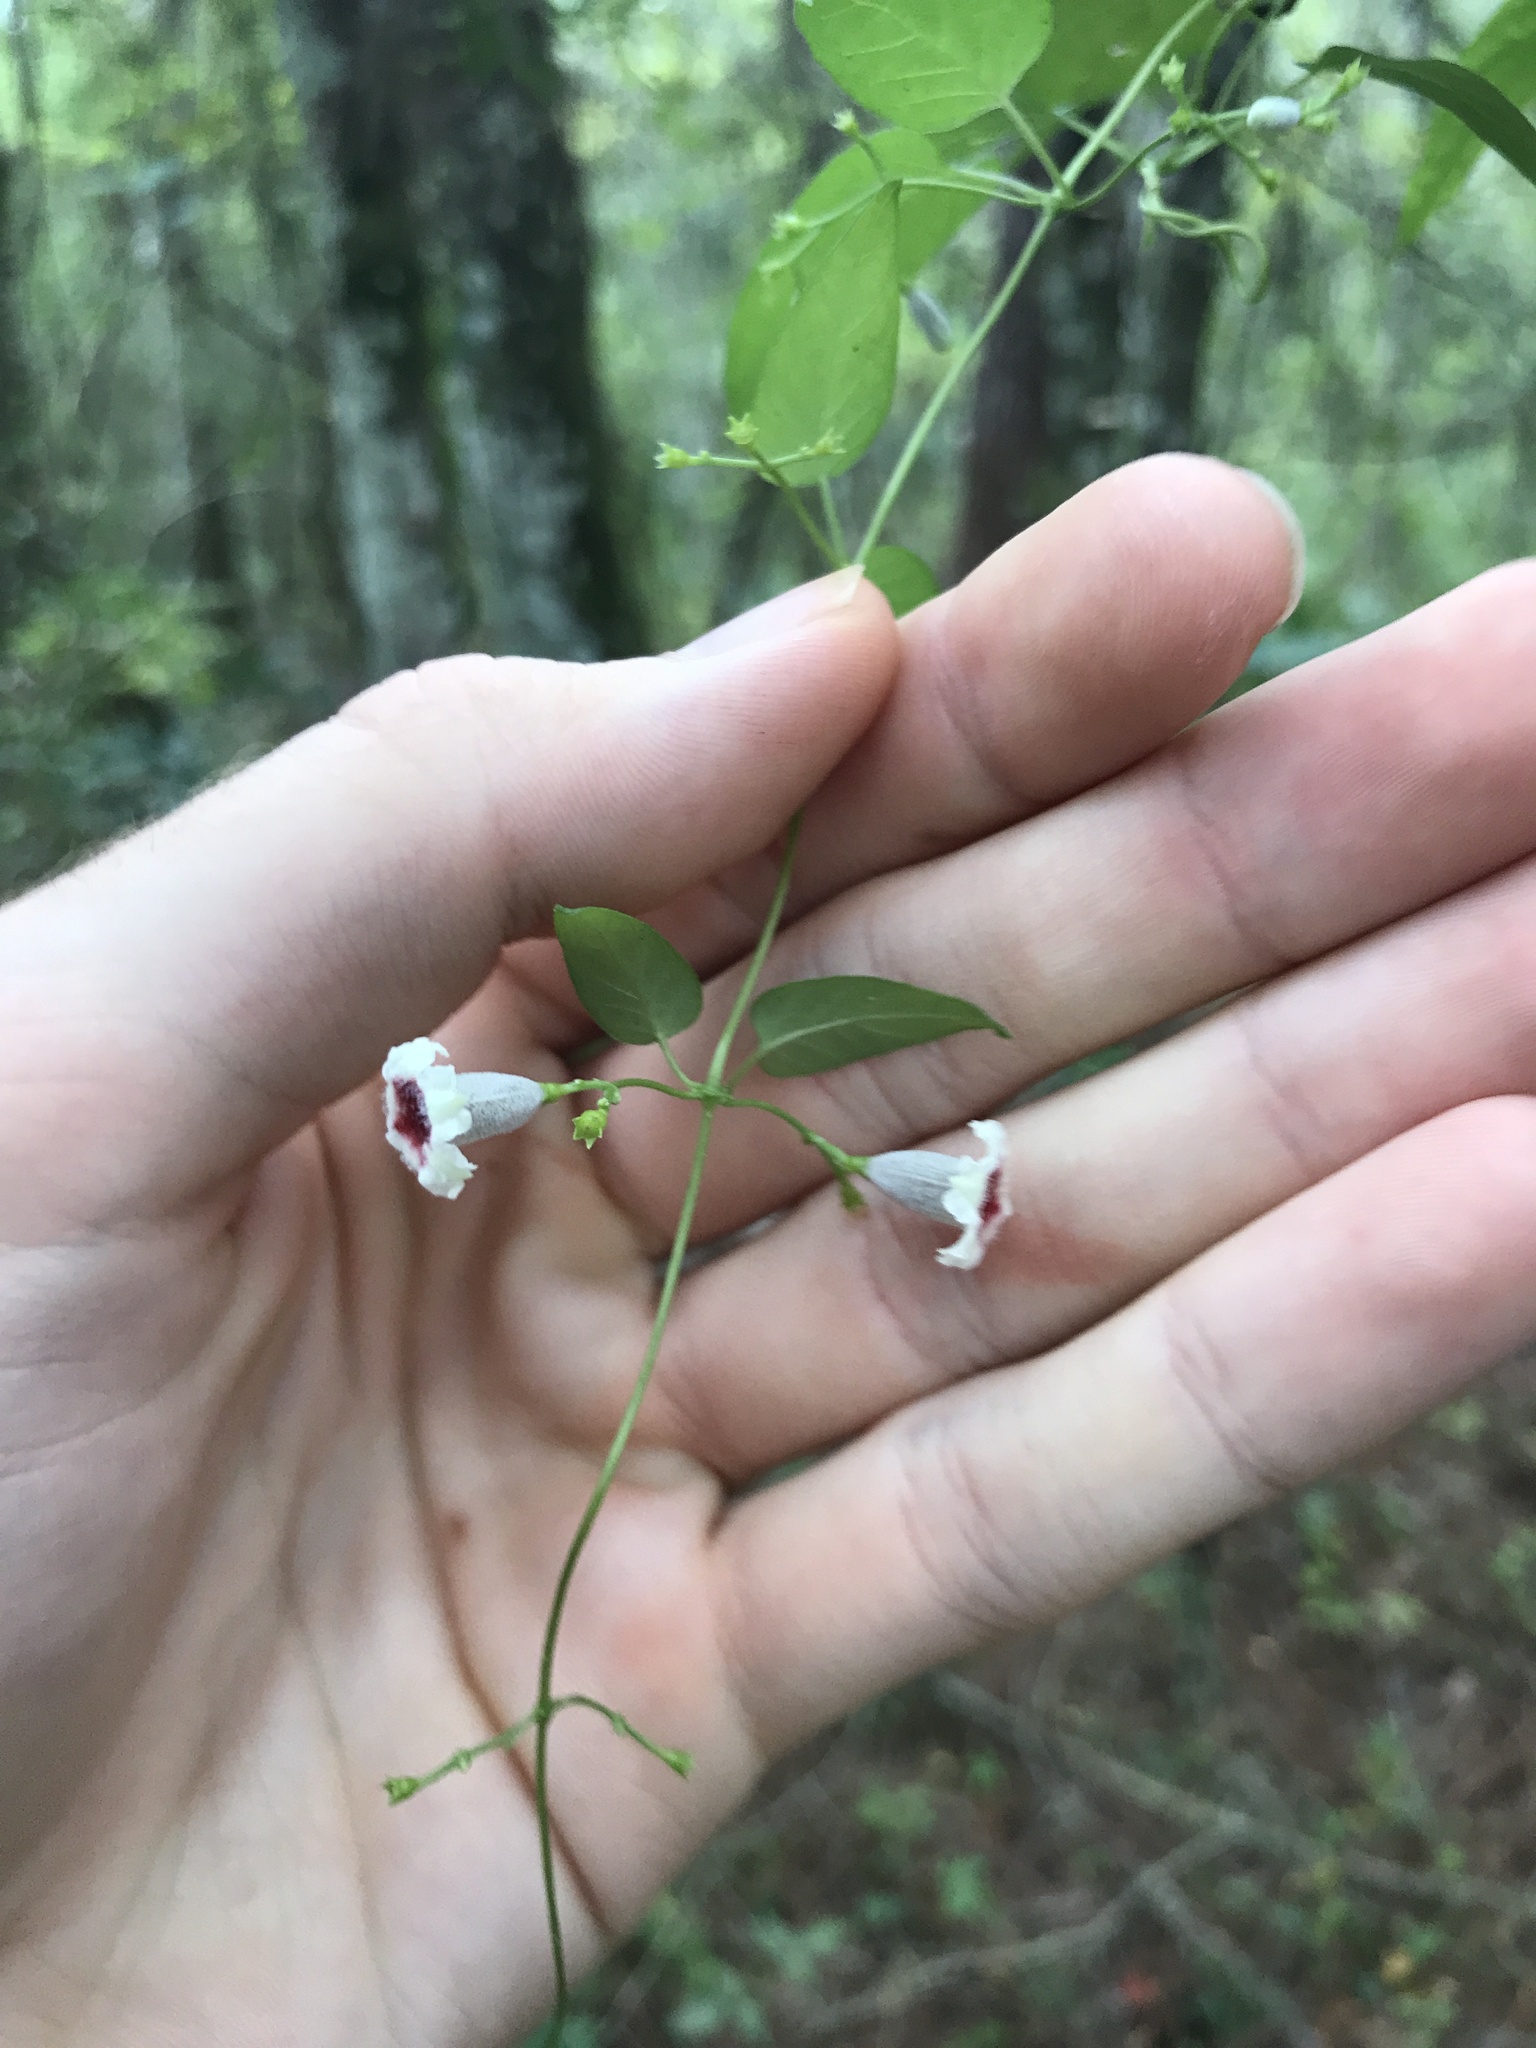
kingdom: Plantae
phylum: Tracheophyta
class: Magnoliopsida
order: Gentianales
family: Rubiaceae
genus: Paederia
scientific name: Paederia foetida
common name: Stinkvine
